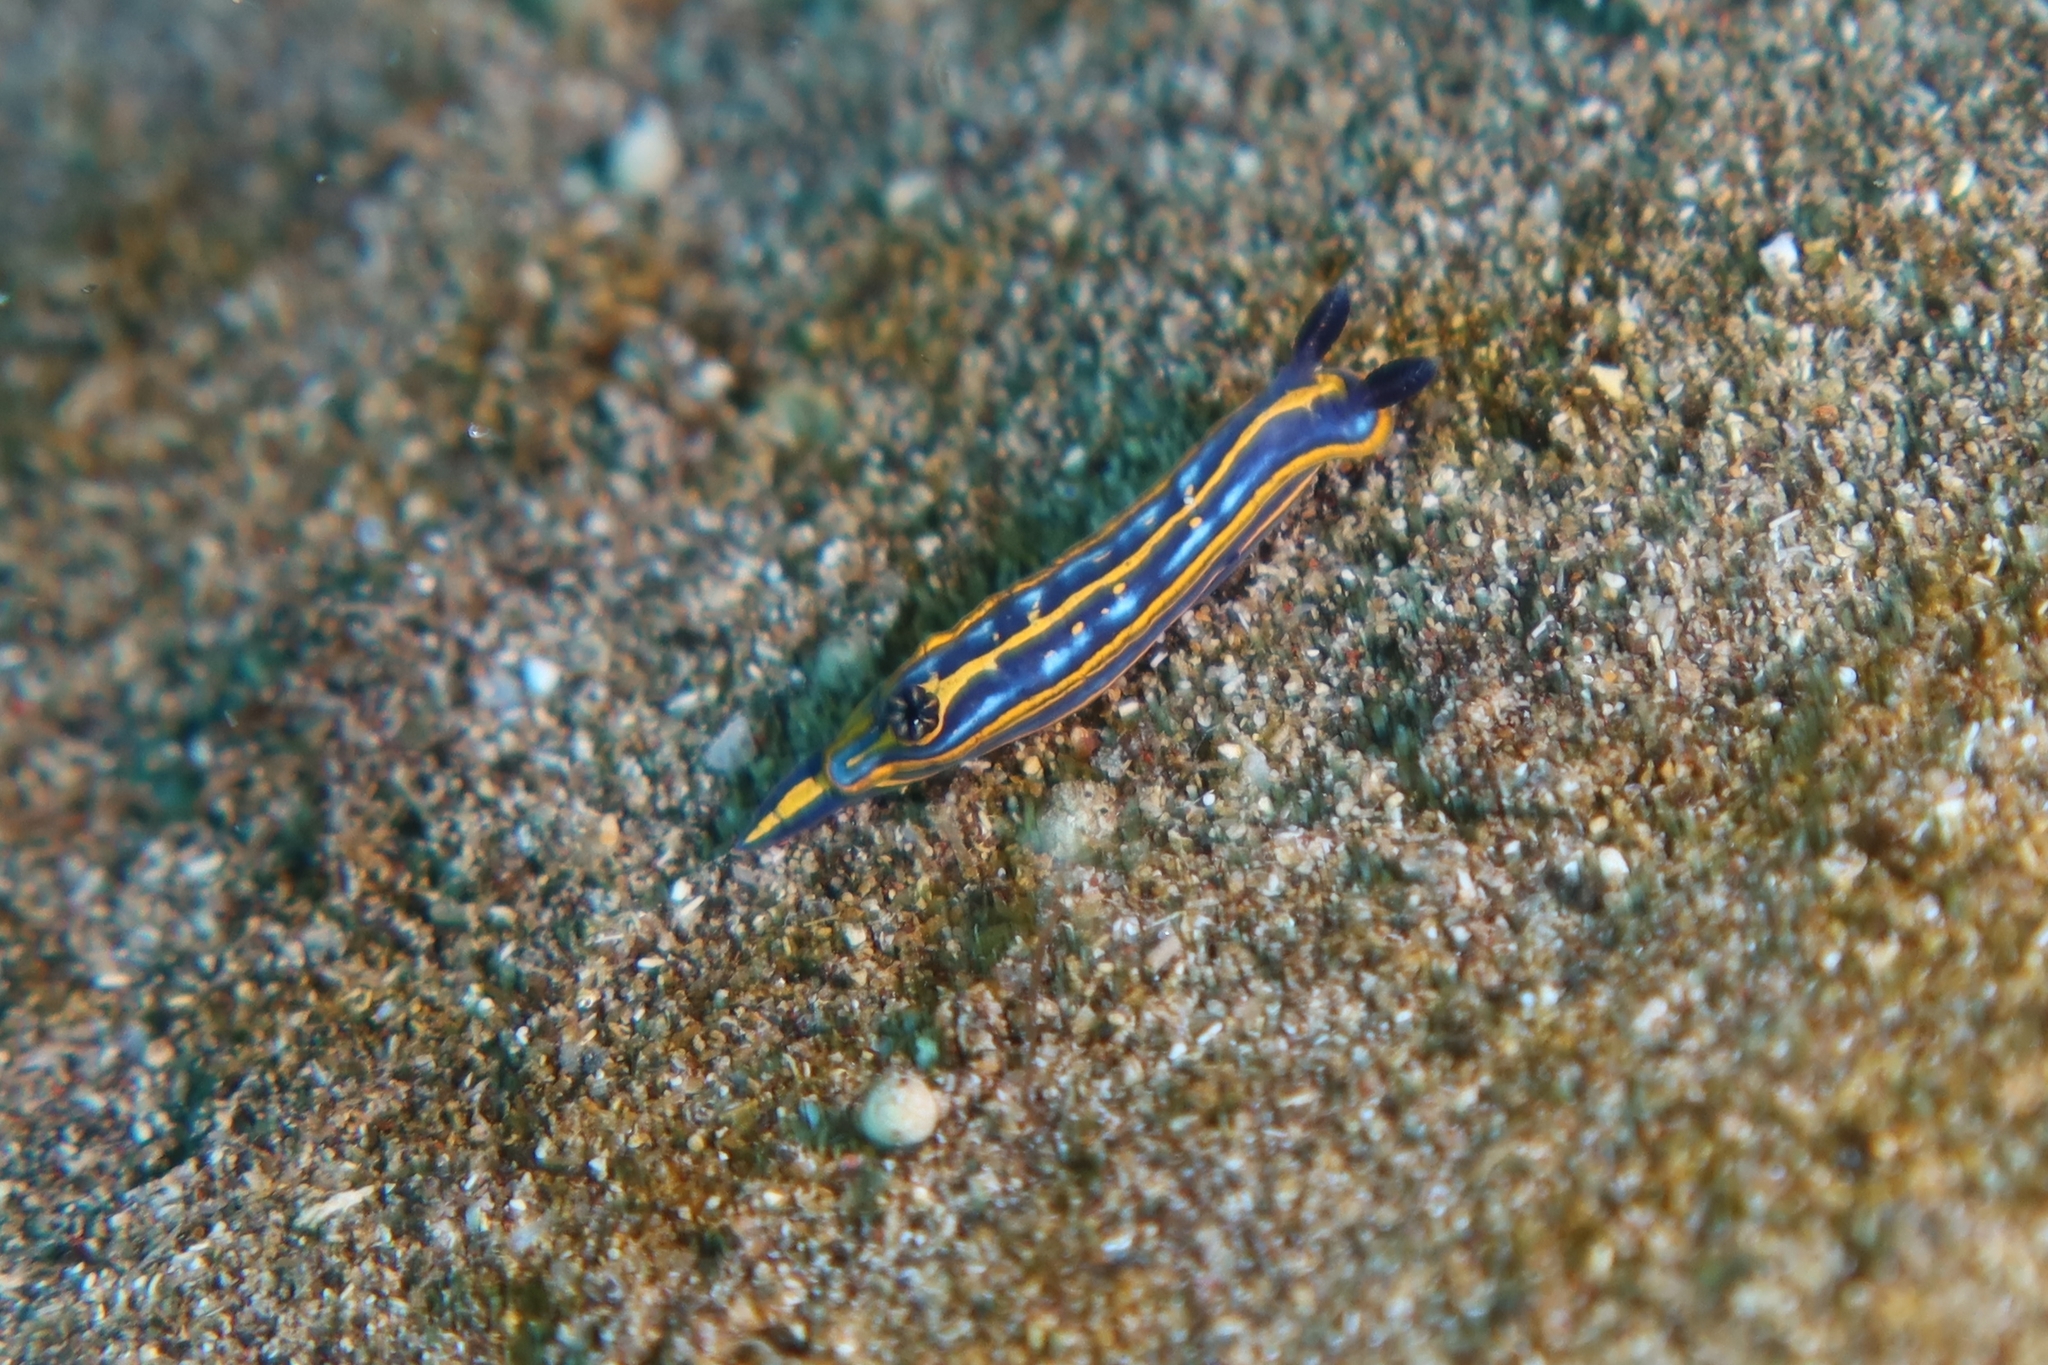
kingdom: Animalia
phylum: Mollusca
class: Gastropoda
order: Nudibranchia
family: Chromodorididae
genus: Felimare
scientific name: Felimare tricolor
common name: Tricolor doris
